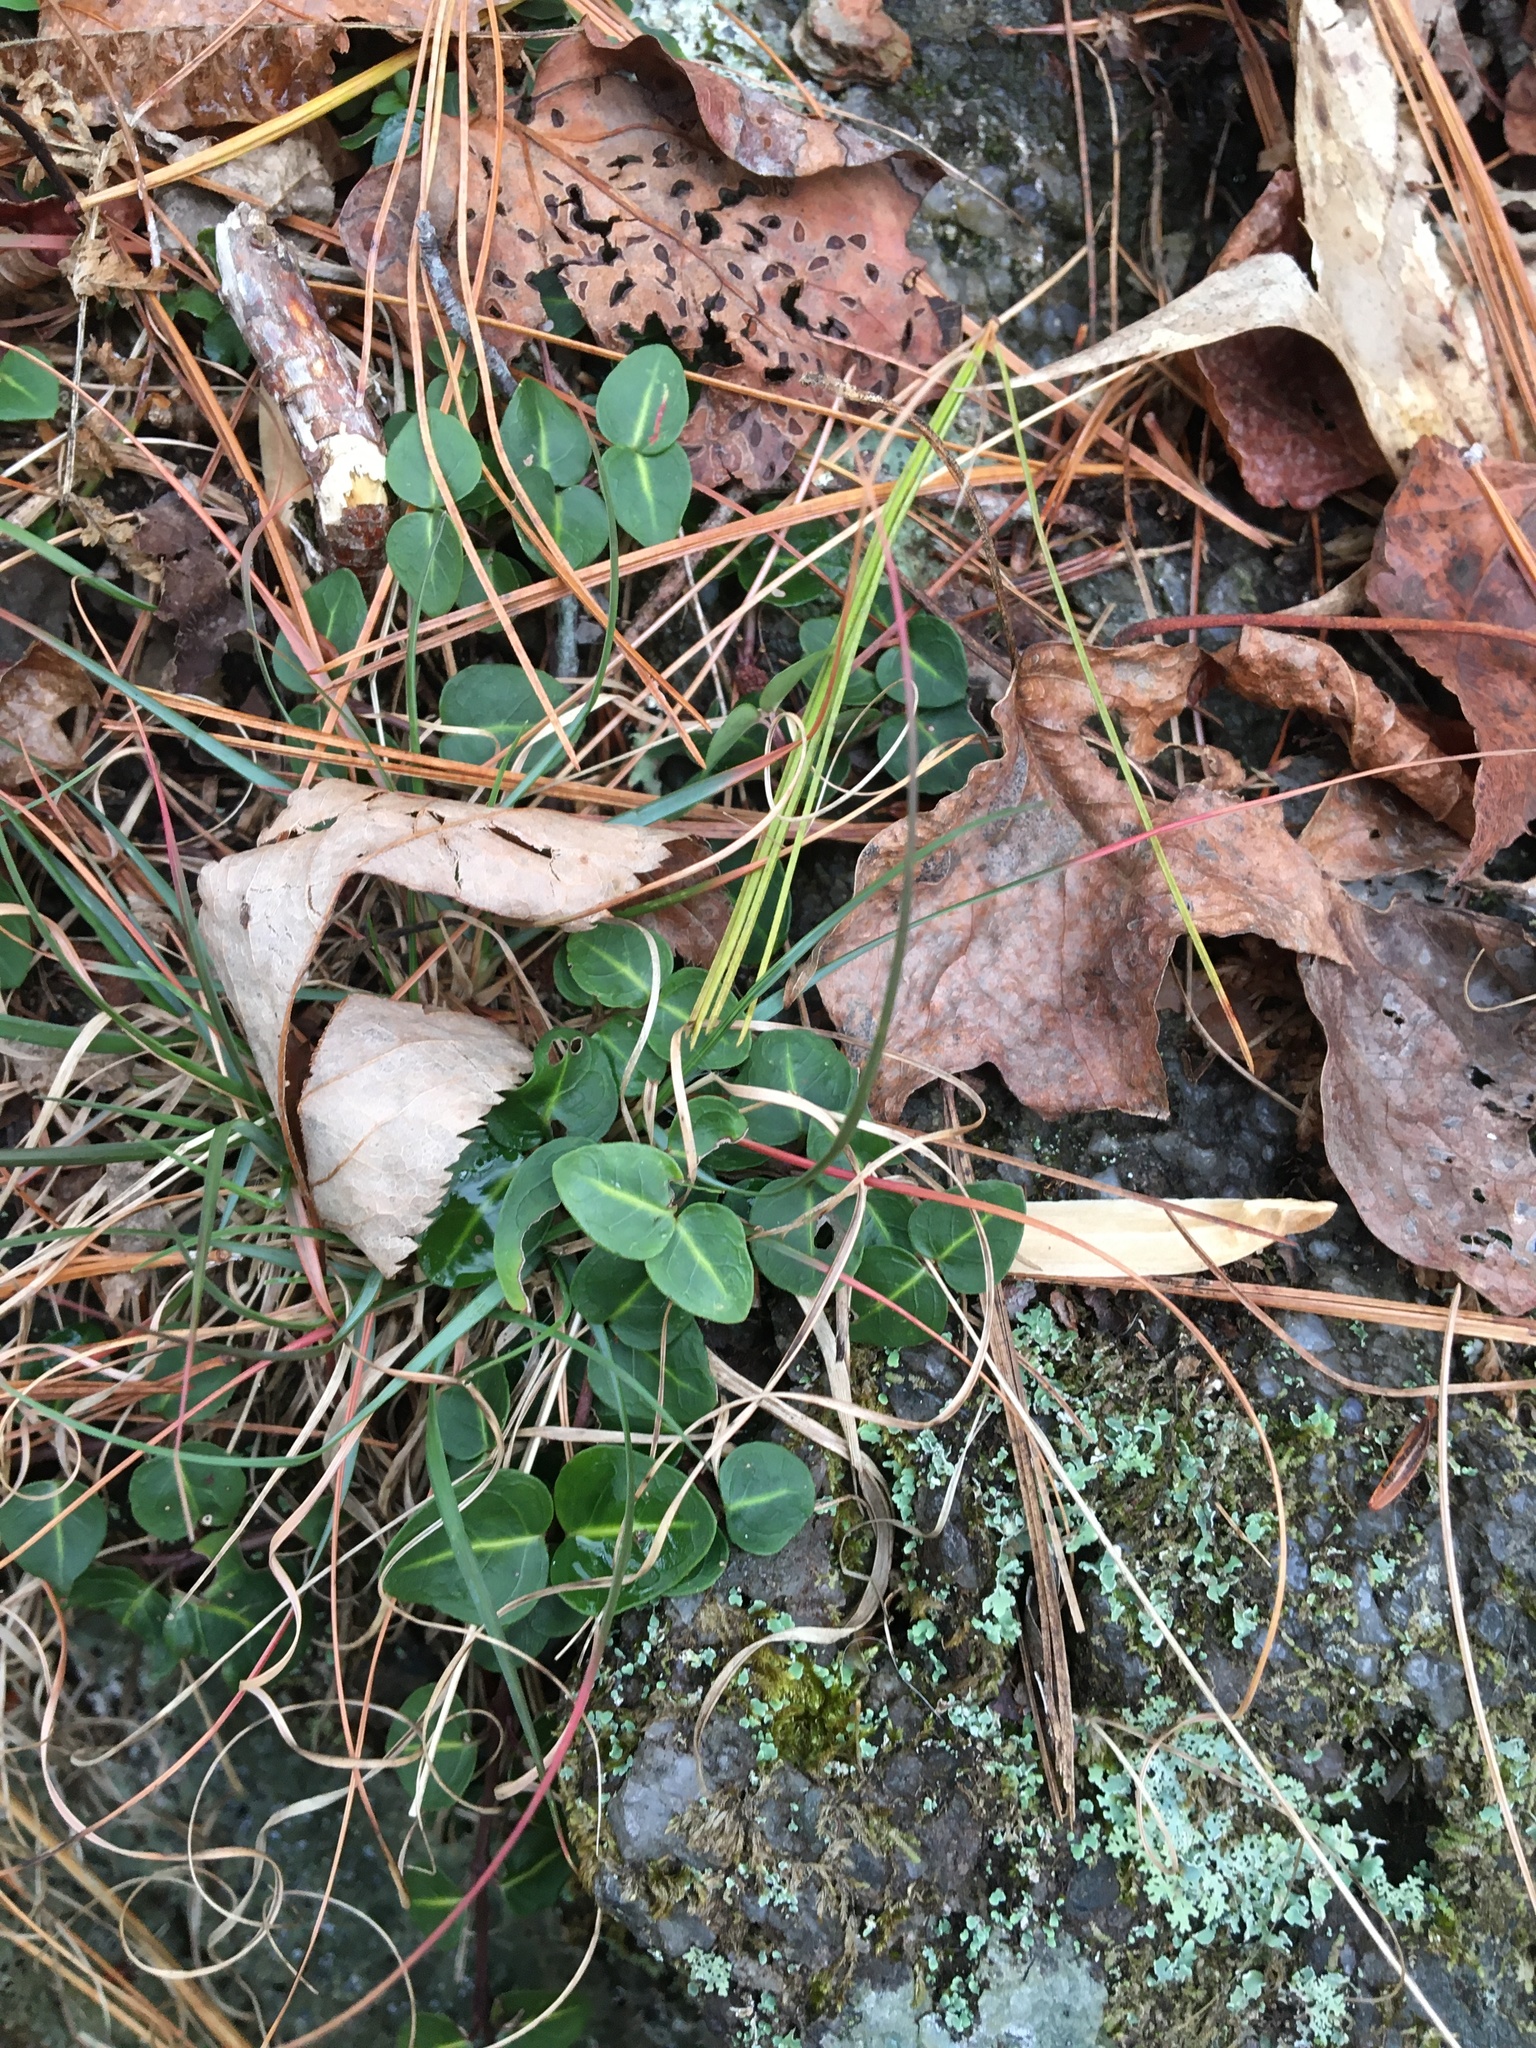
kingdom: Plantae
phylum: Tracheophyta
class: Magnoliopsida
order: Gentianales
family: Rubiaceae
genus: Mitchella
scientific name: Mitchella repens
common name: Partridge-berry
